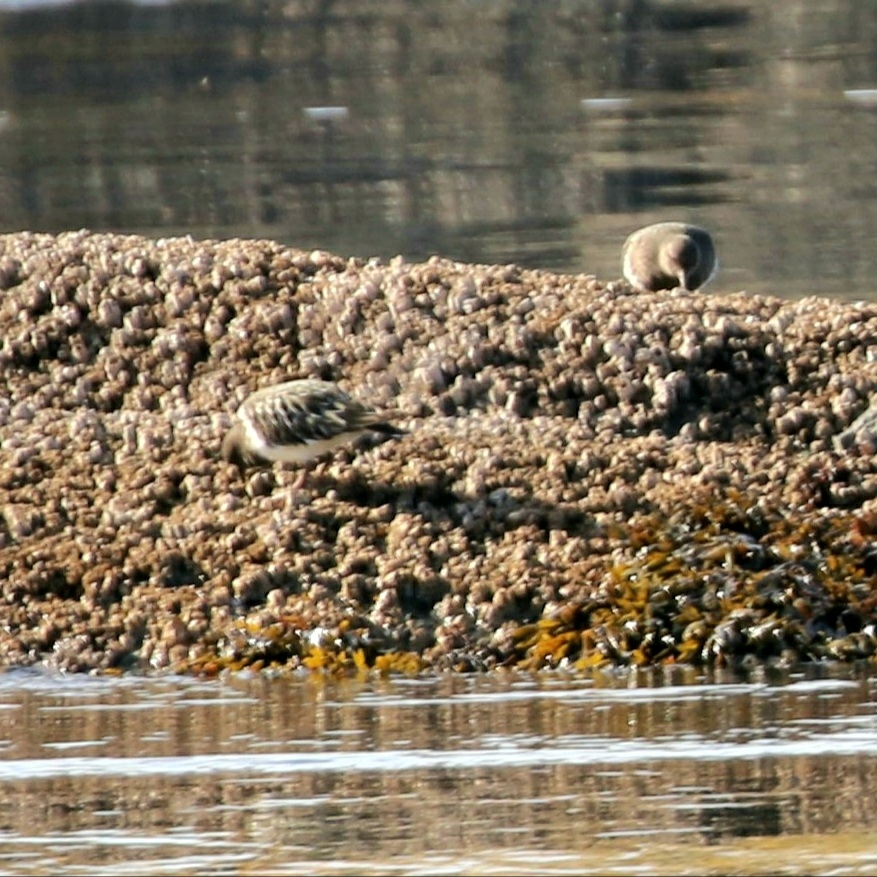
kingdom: Animalia
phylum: Chordata
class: Aves
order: Charadriiformes
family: Scolopacidae
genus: Arenaria
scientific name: Arenaria melanocephala
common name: Black turnstone
